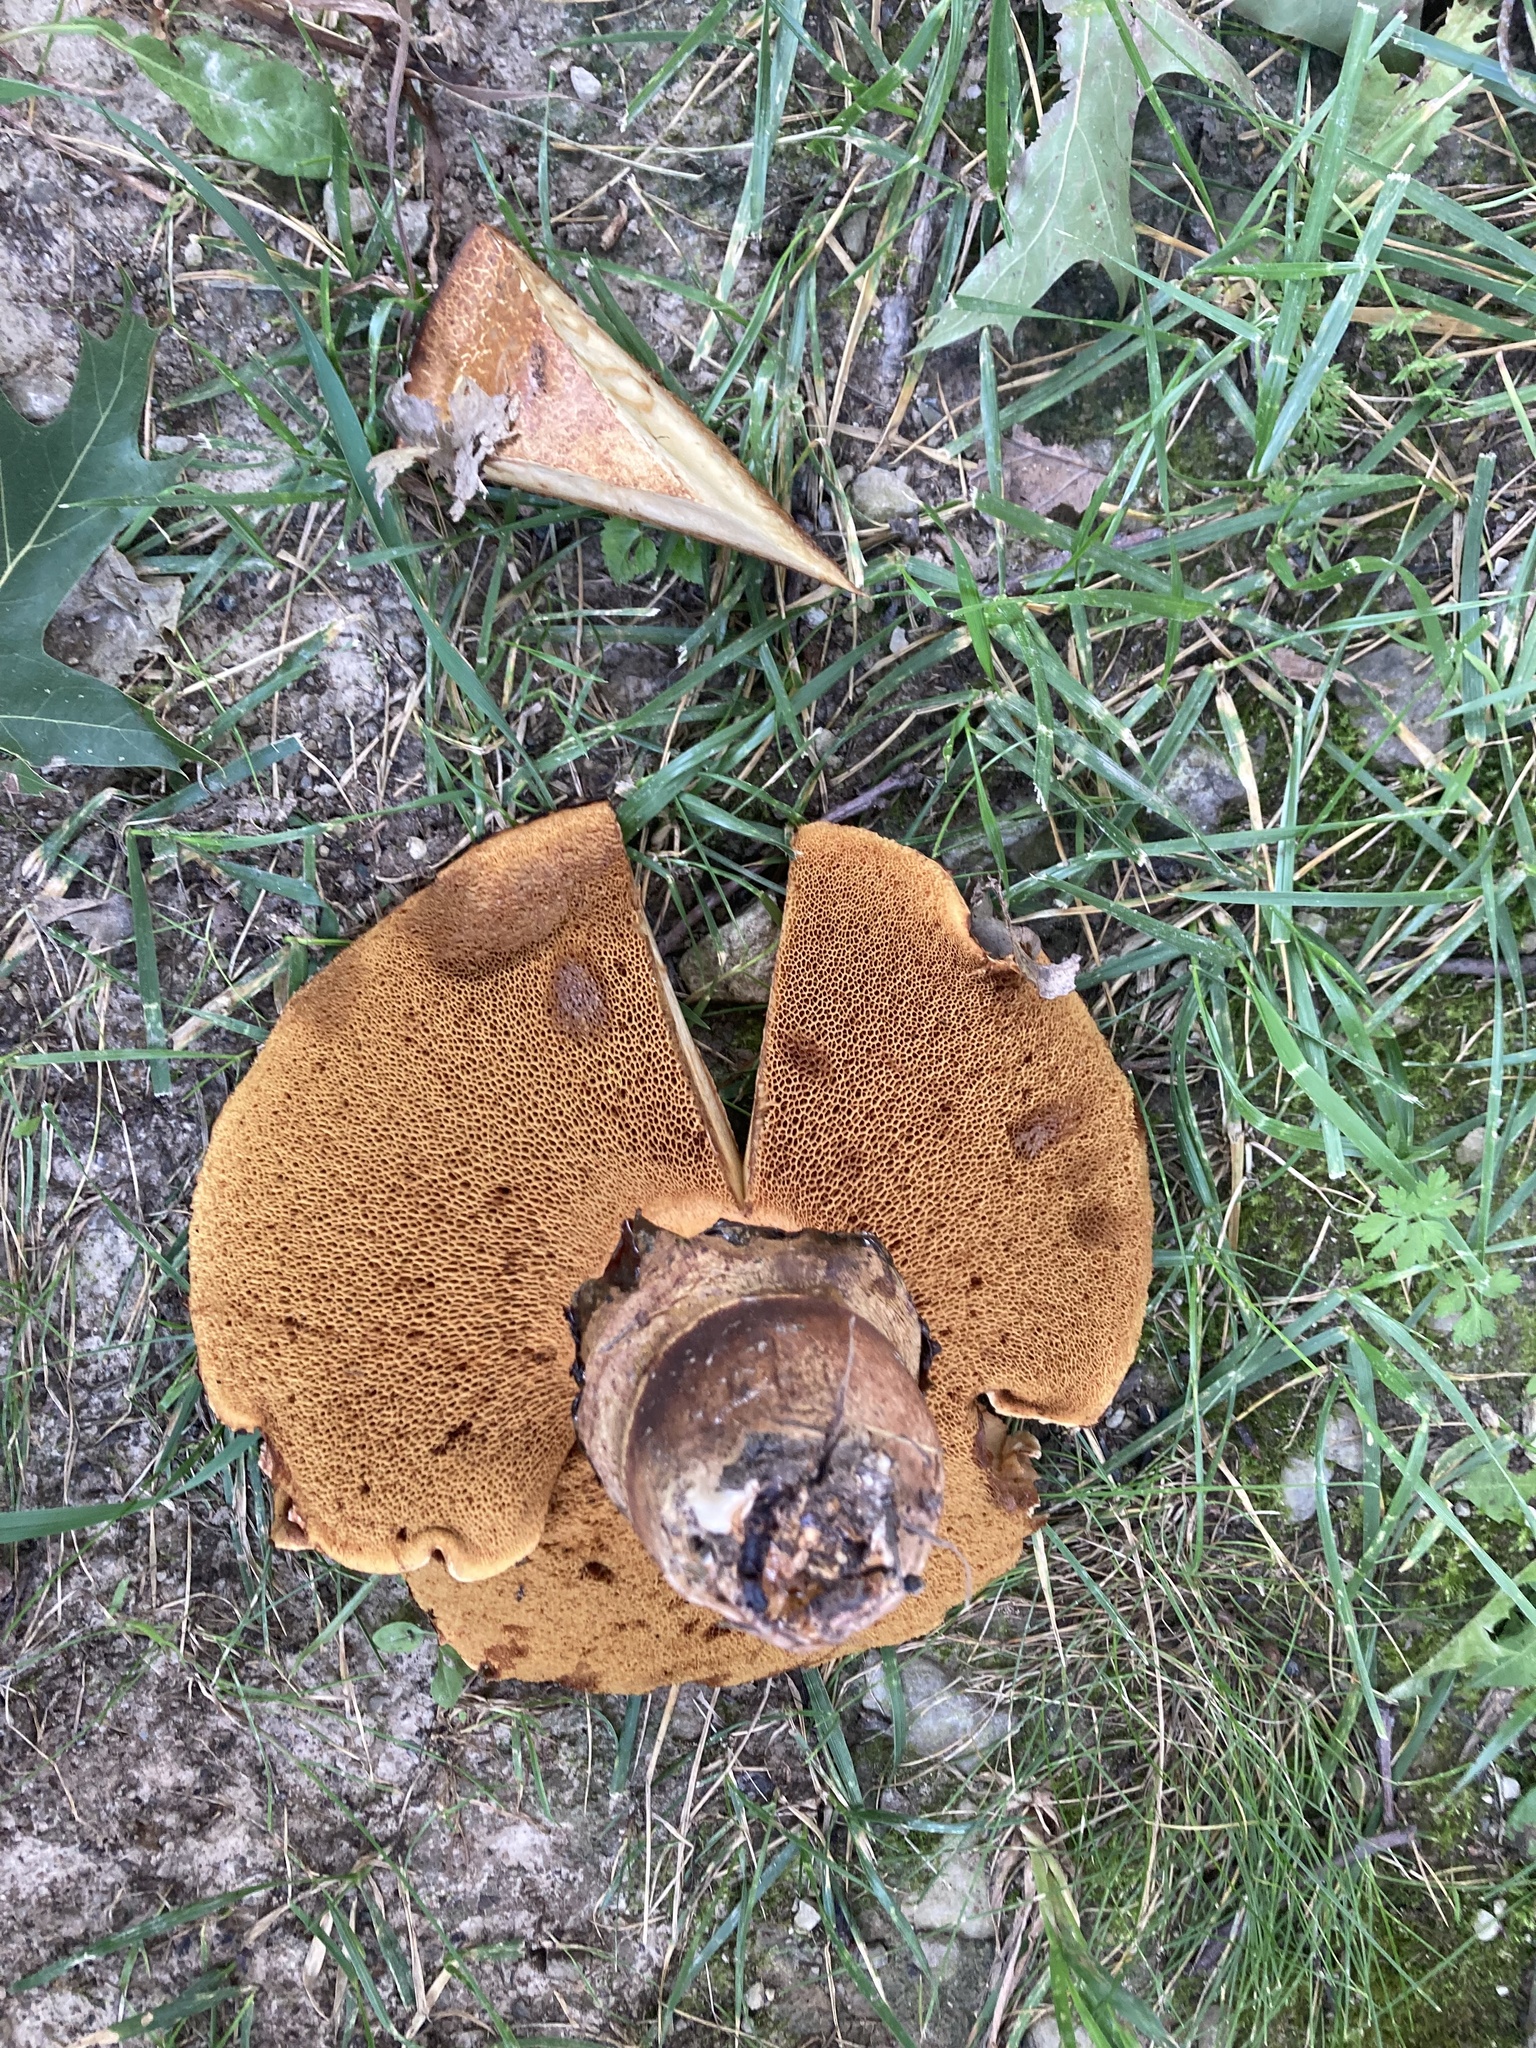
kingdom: Fungi
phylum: Basidiomycota
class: Agaricomycetes
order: Boletales
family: Paxillaceae
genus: Paragyrodon
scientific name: Paragyrodon sphaerosporus
